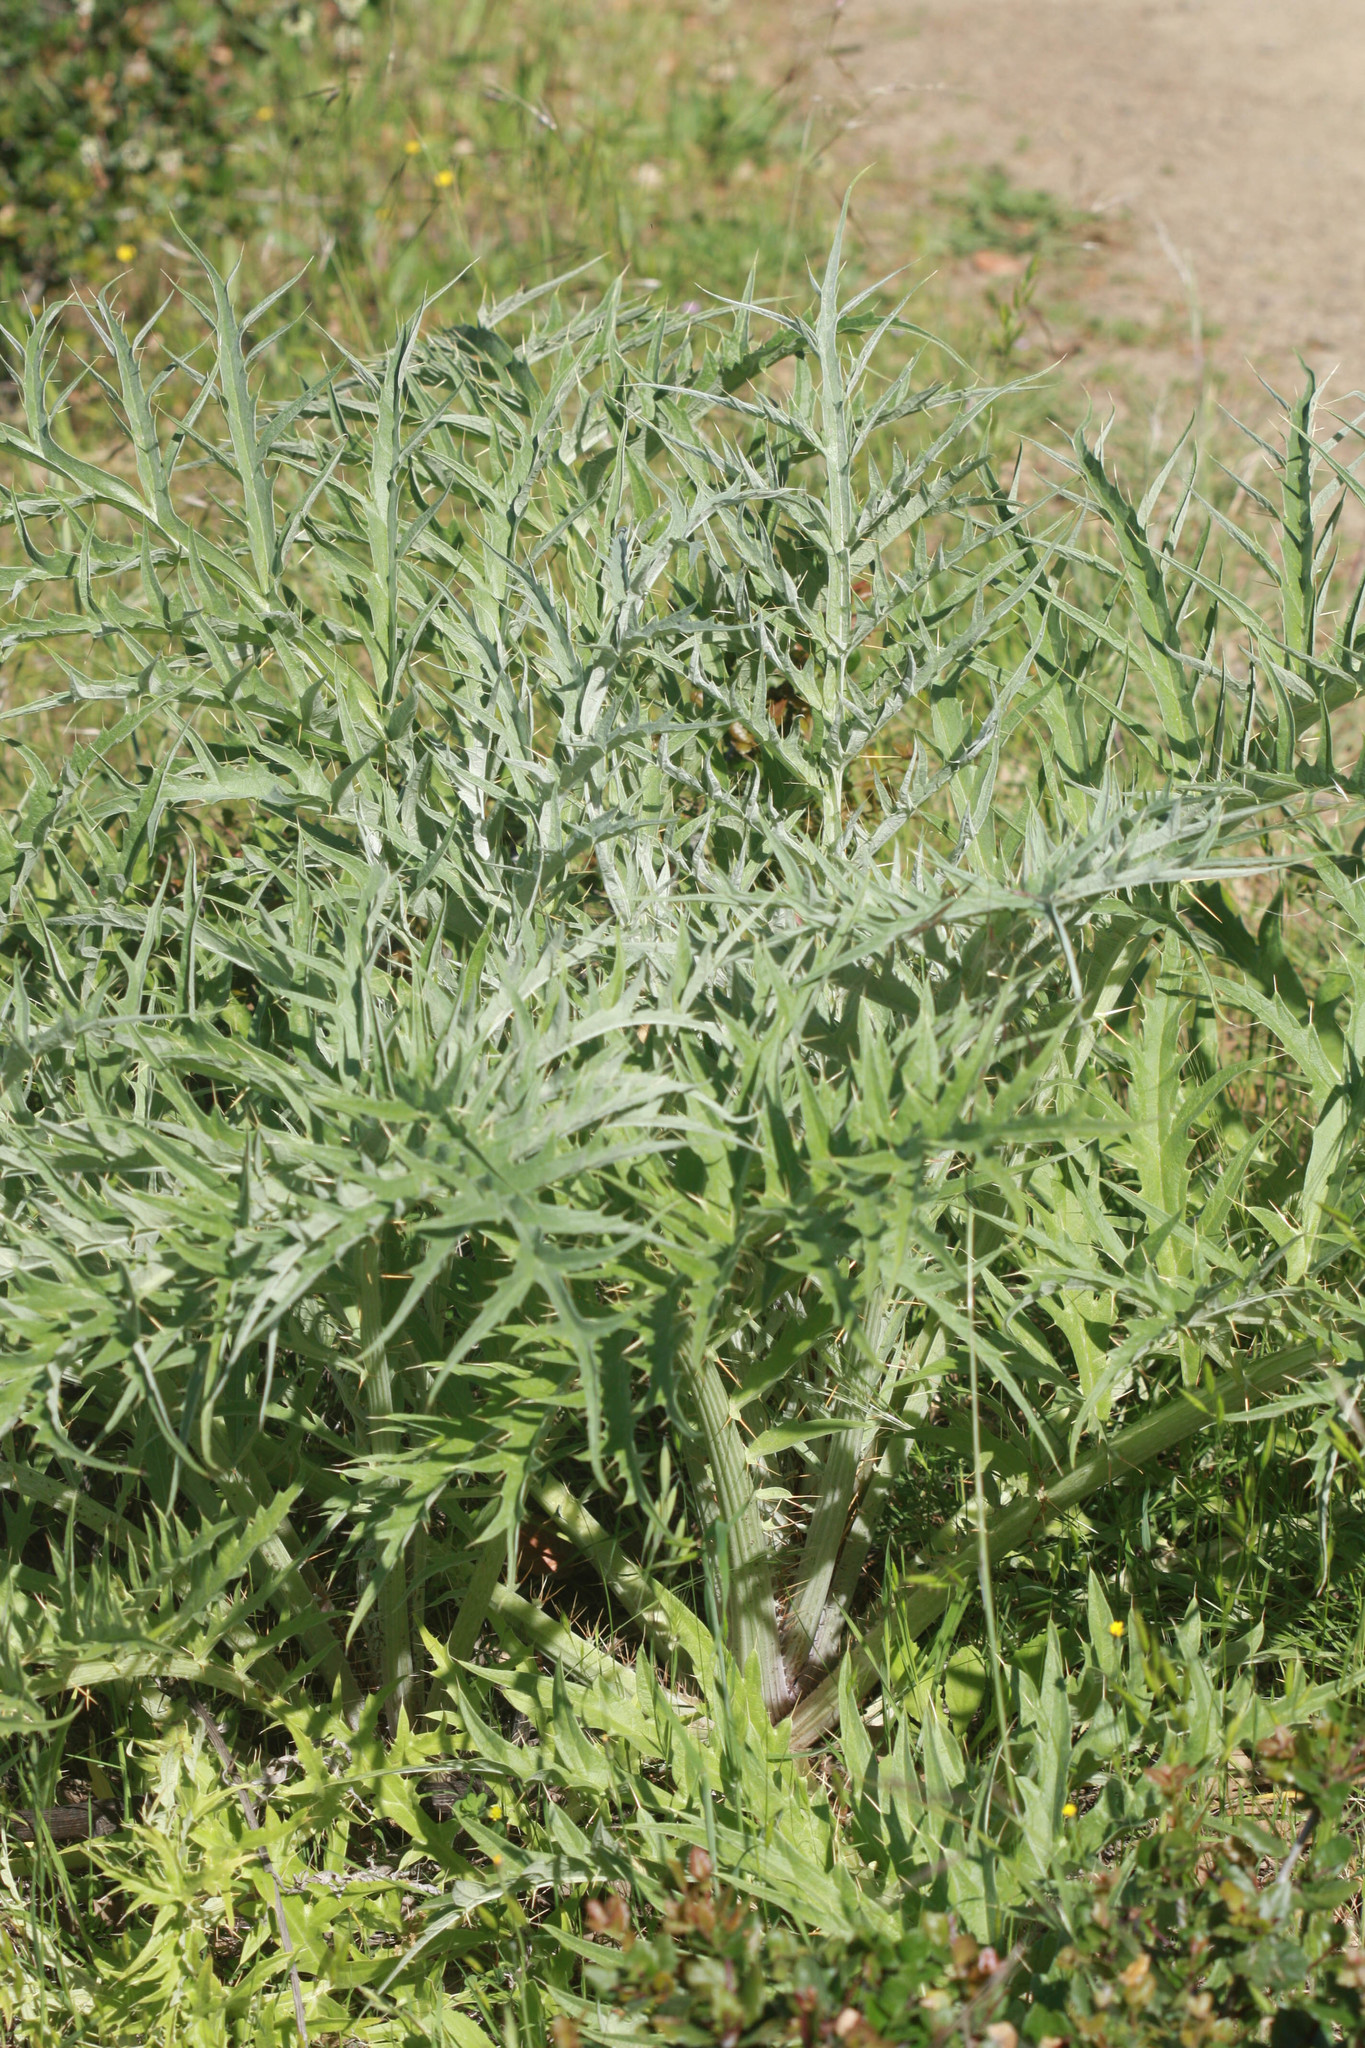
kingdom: Plantae
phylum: Tracheophyta
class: Magnoliopsida
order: Asterales
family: Asteraceae
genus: Cynara
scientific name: Cynara cardunculus
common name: Globe artichoke
